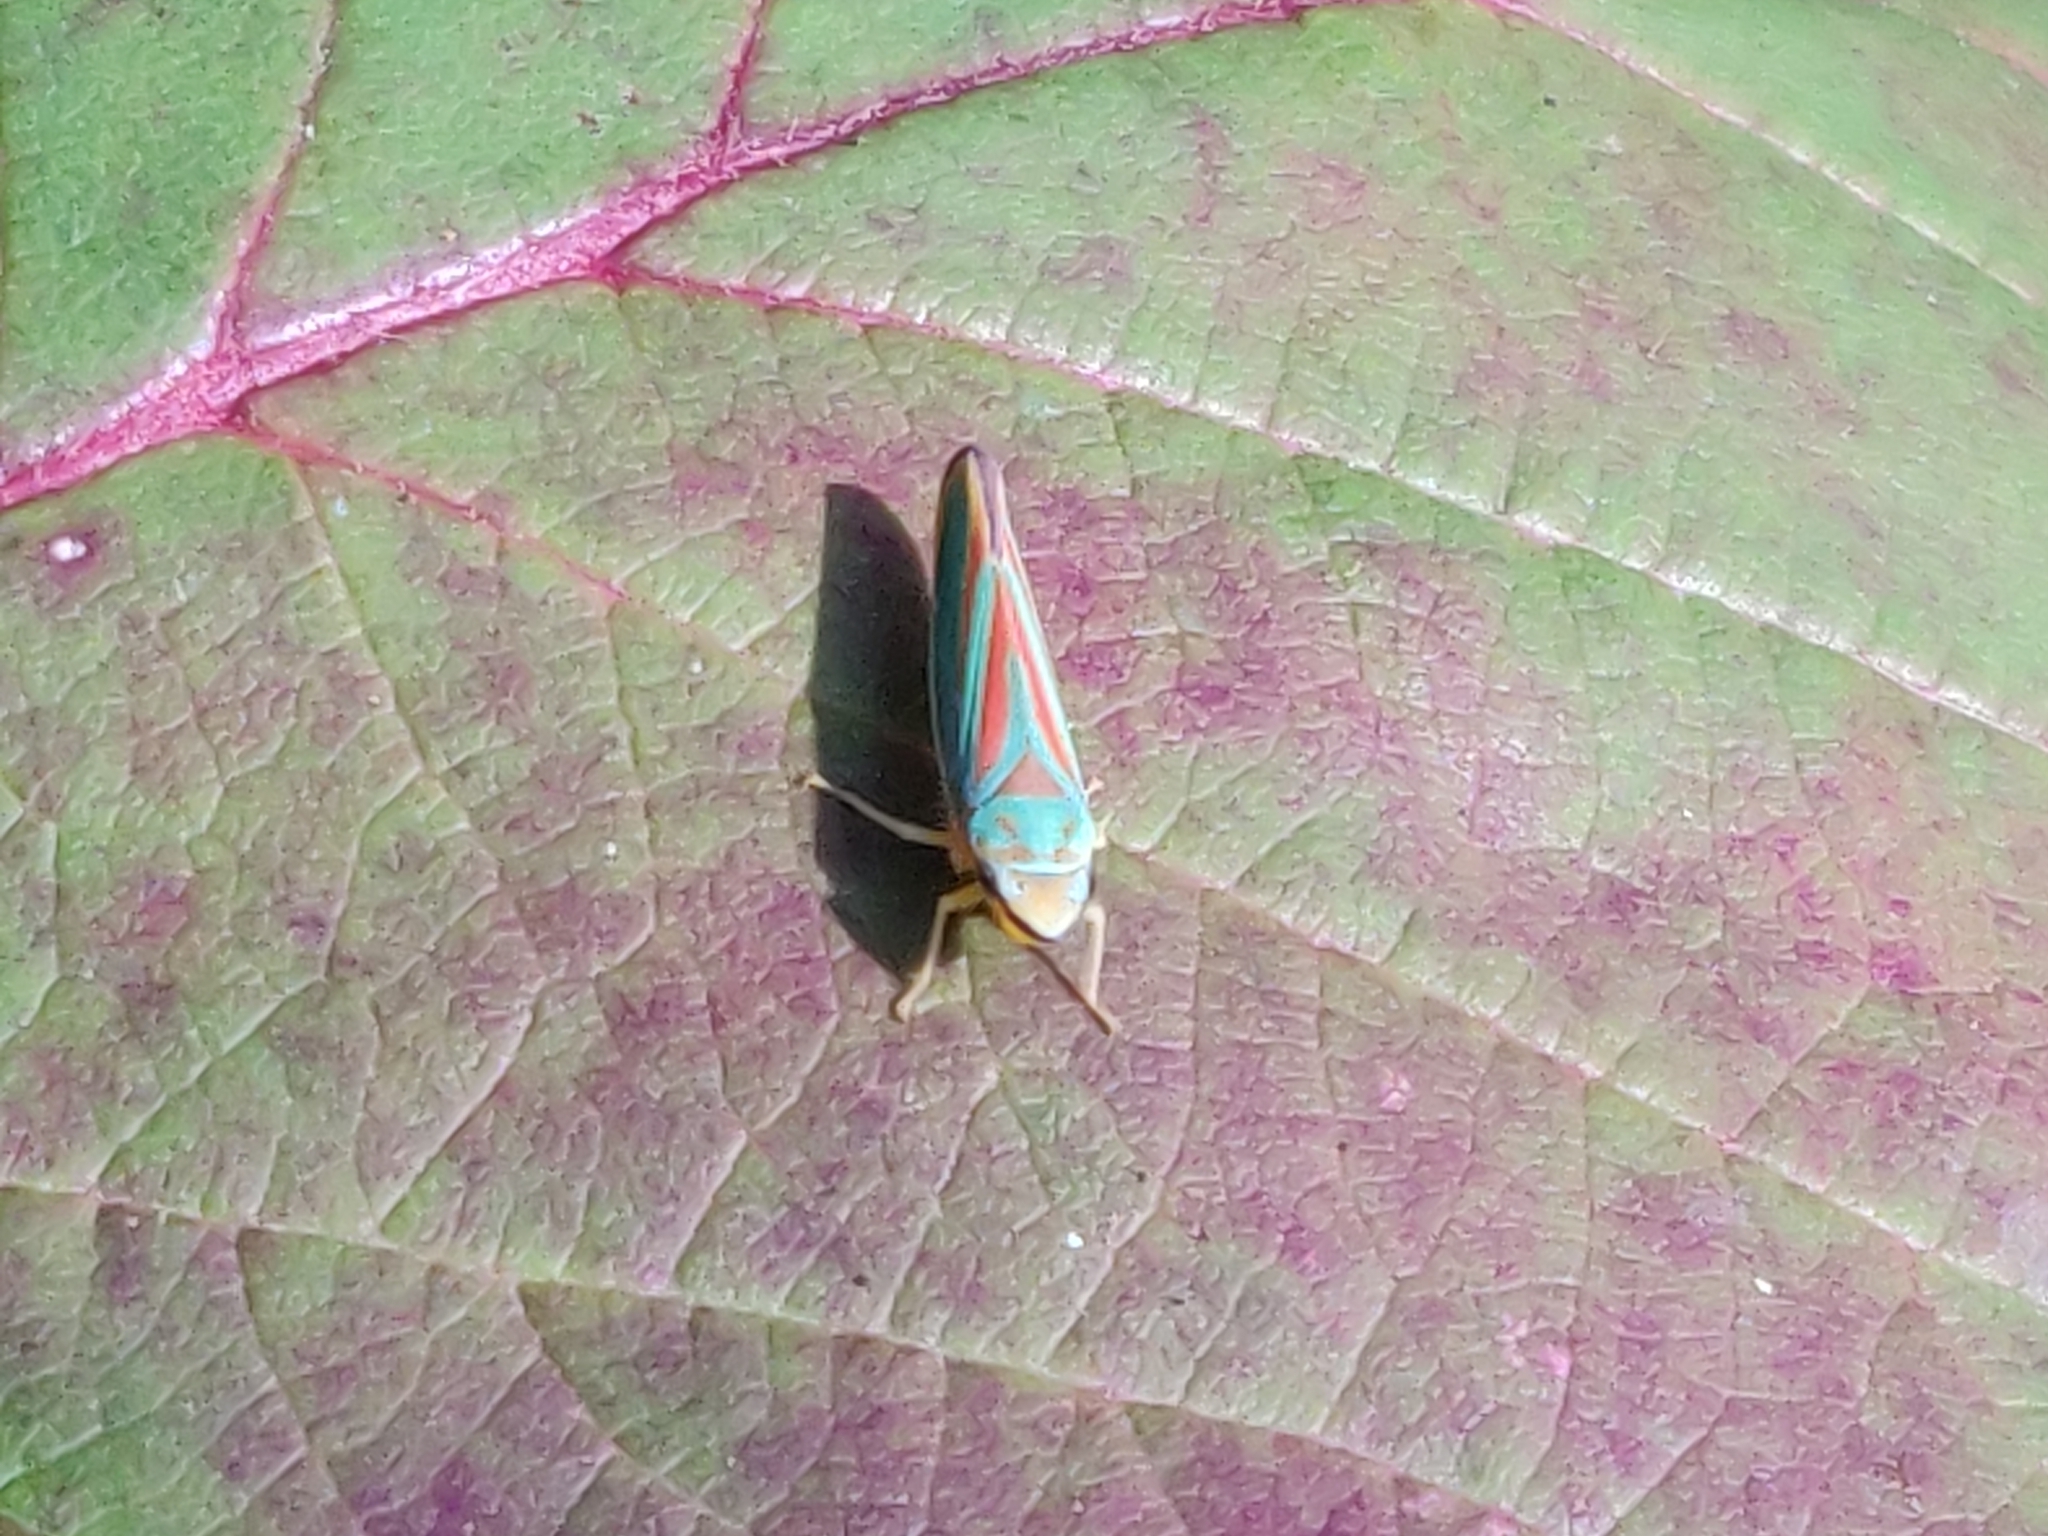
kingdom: Animalia
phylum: Arthropoda
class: Insecta
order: Hemiptera
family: Cicadellidae
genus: Graphocephala
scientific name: Graphocephala fennahi
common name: Rhododendron leafhopper
